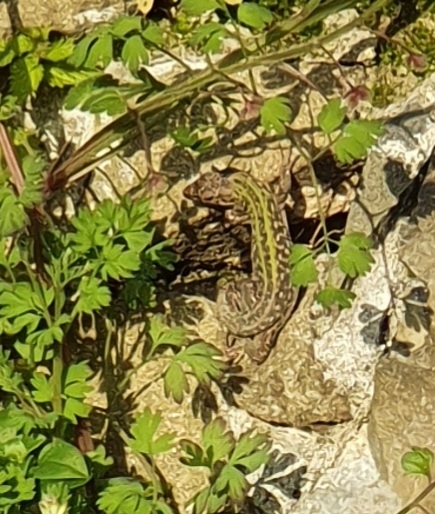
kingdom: Animalia
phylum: Chordata
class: Squamata
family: Lacertidae
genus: Podarcis
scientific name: Podarcis siculus
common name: Italian wall lizard
